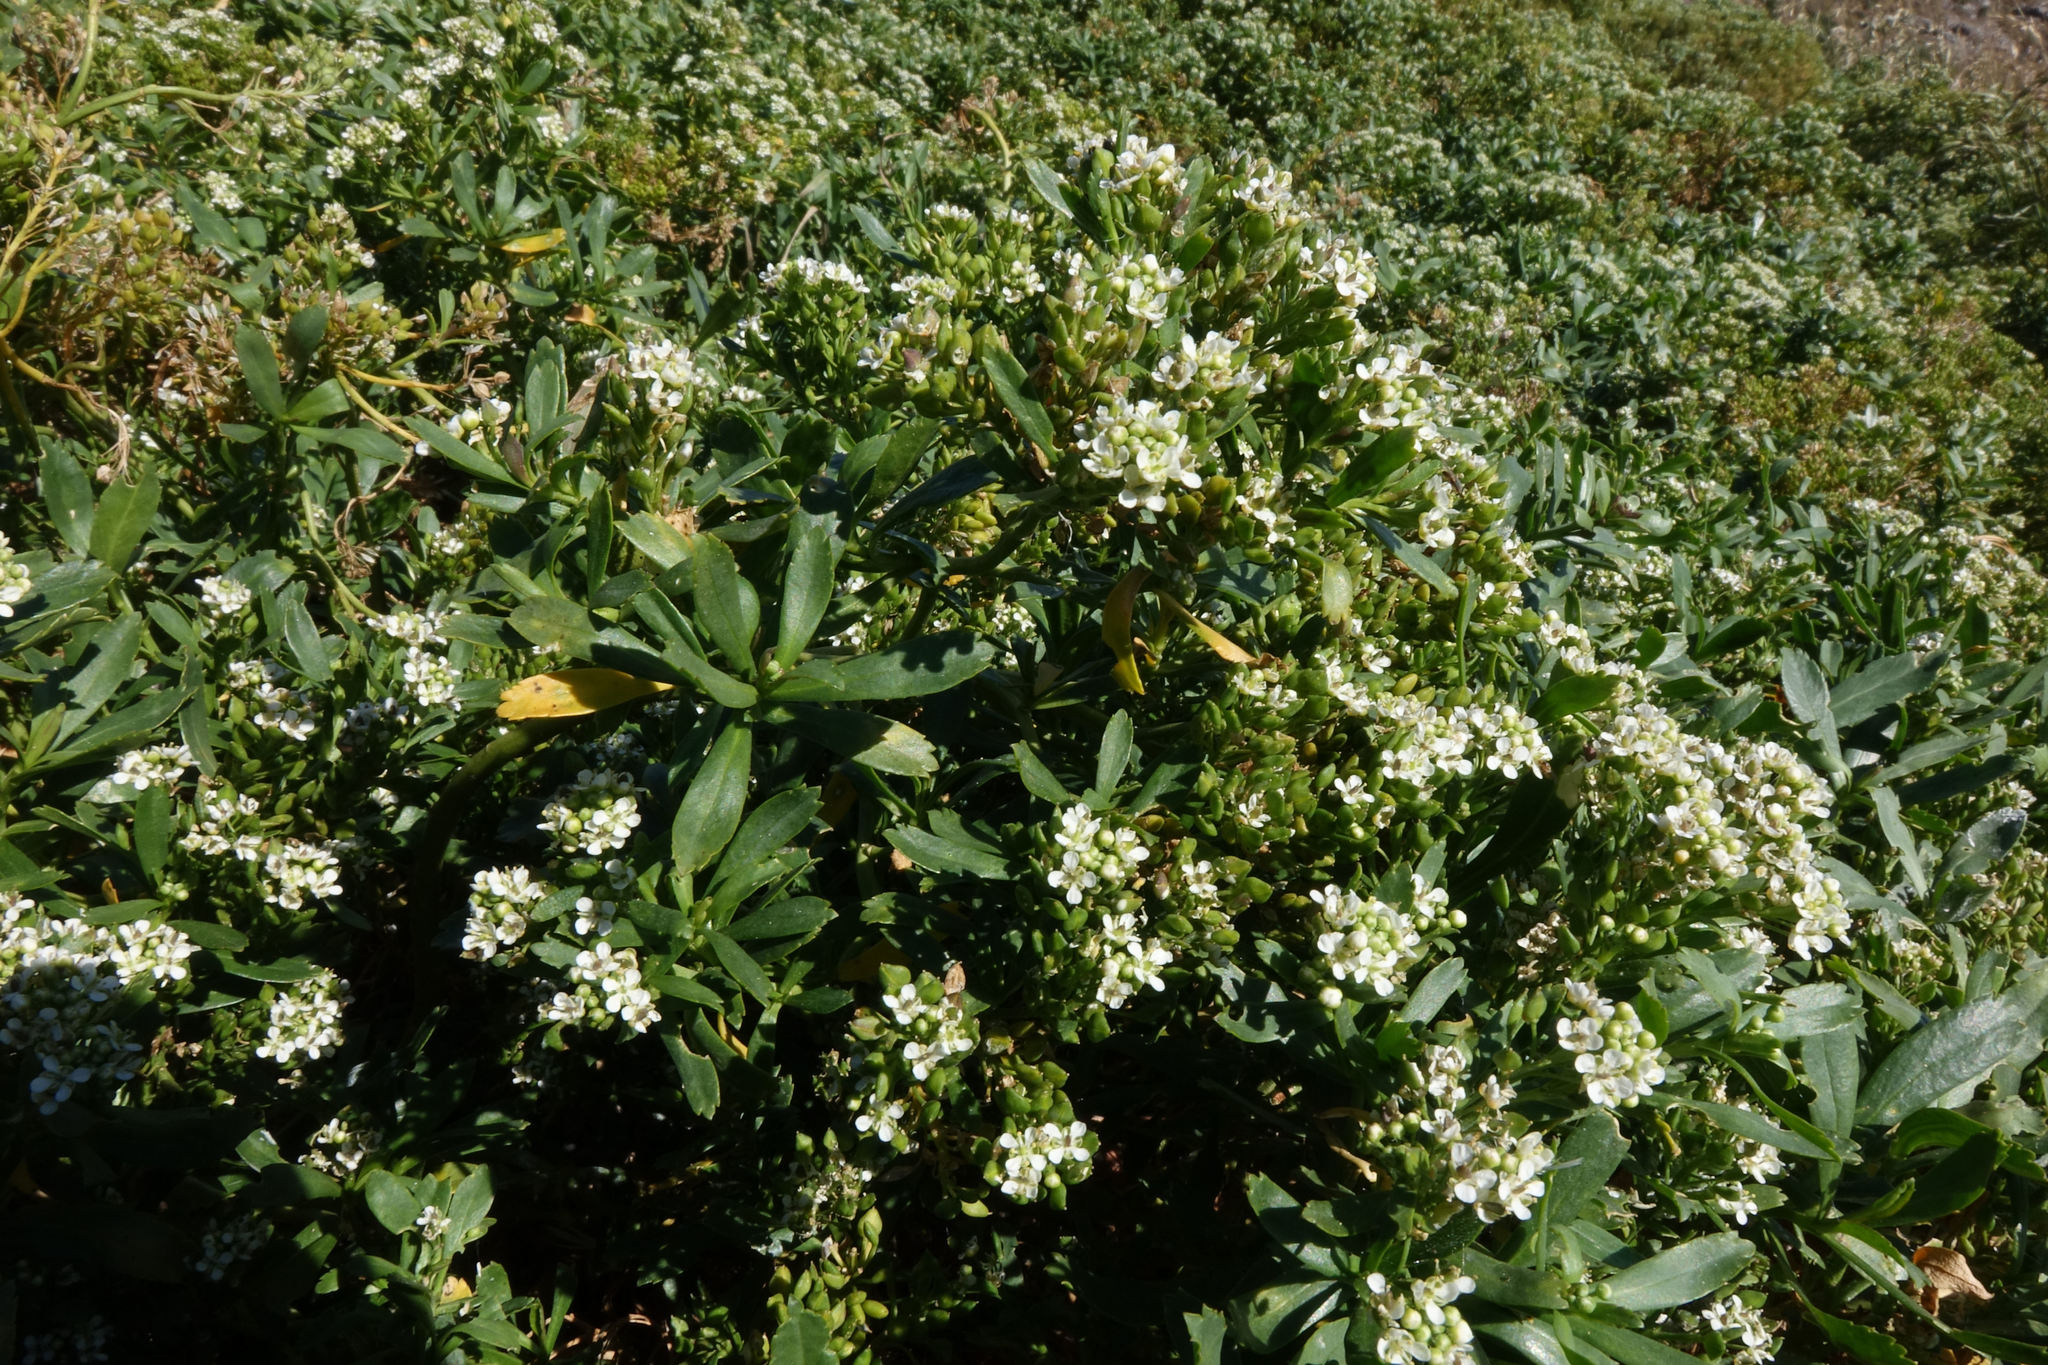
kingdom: Plantae
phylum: Tracheophyta
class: Magnoliopsida
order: Brassicales
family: Brassicaceae
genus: Lepidium
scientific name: Lepidium crassum
